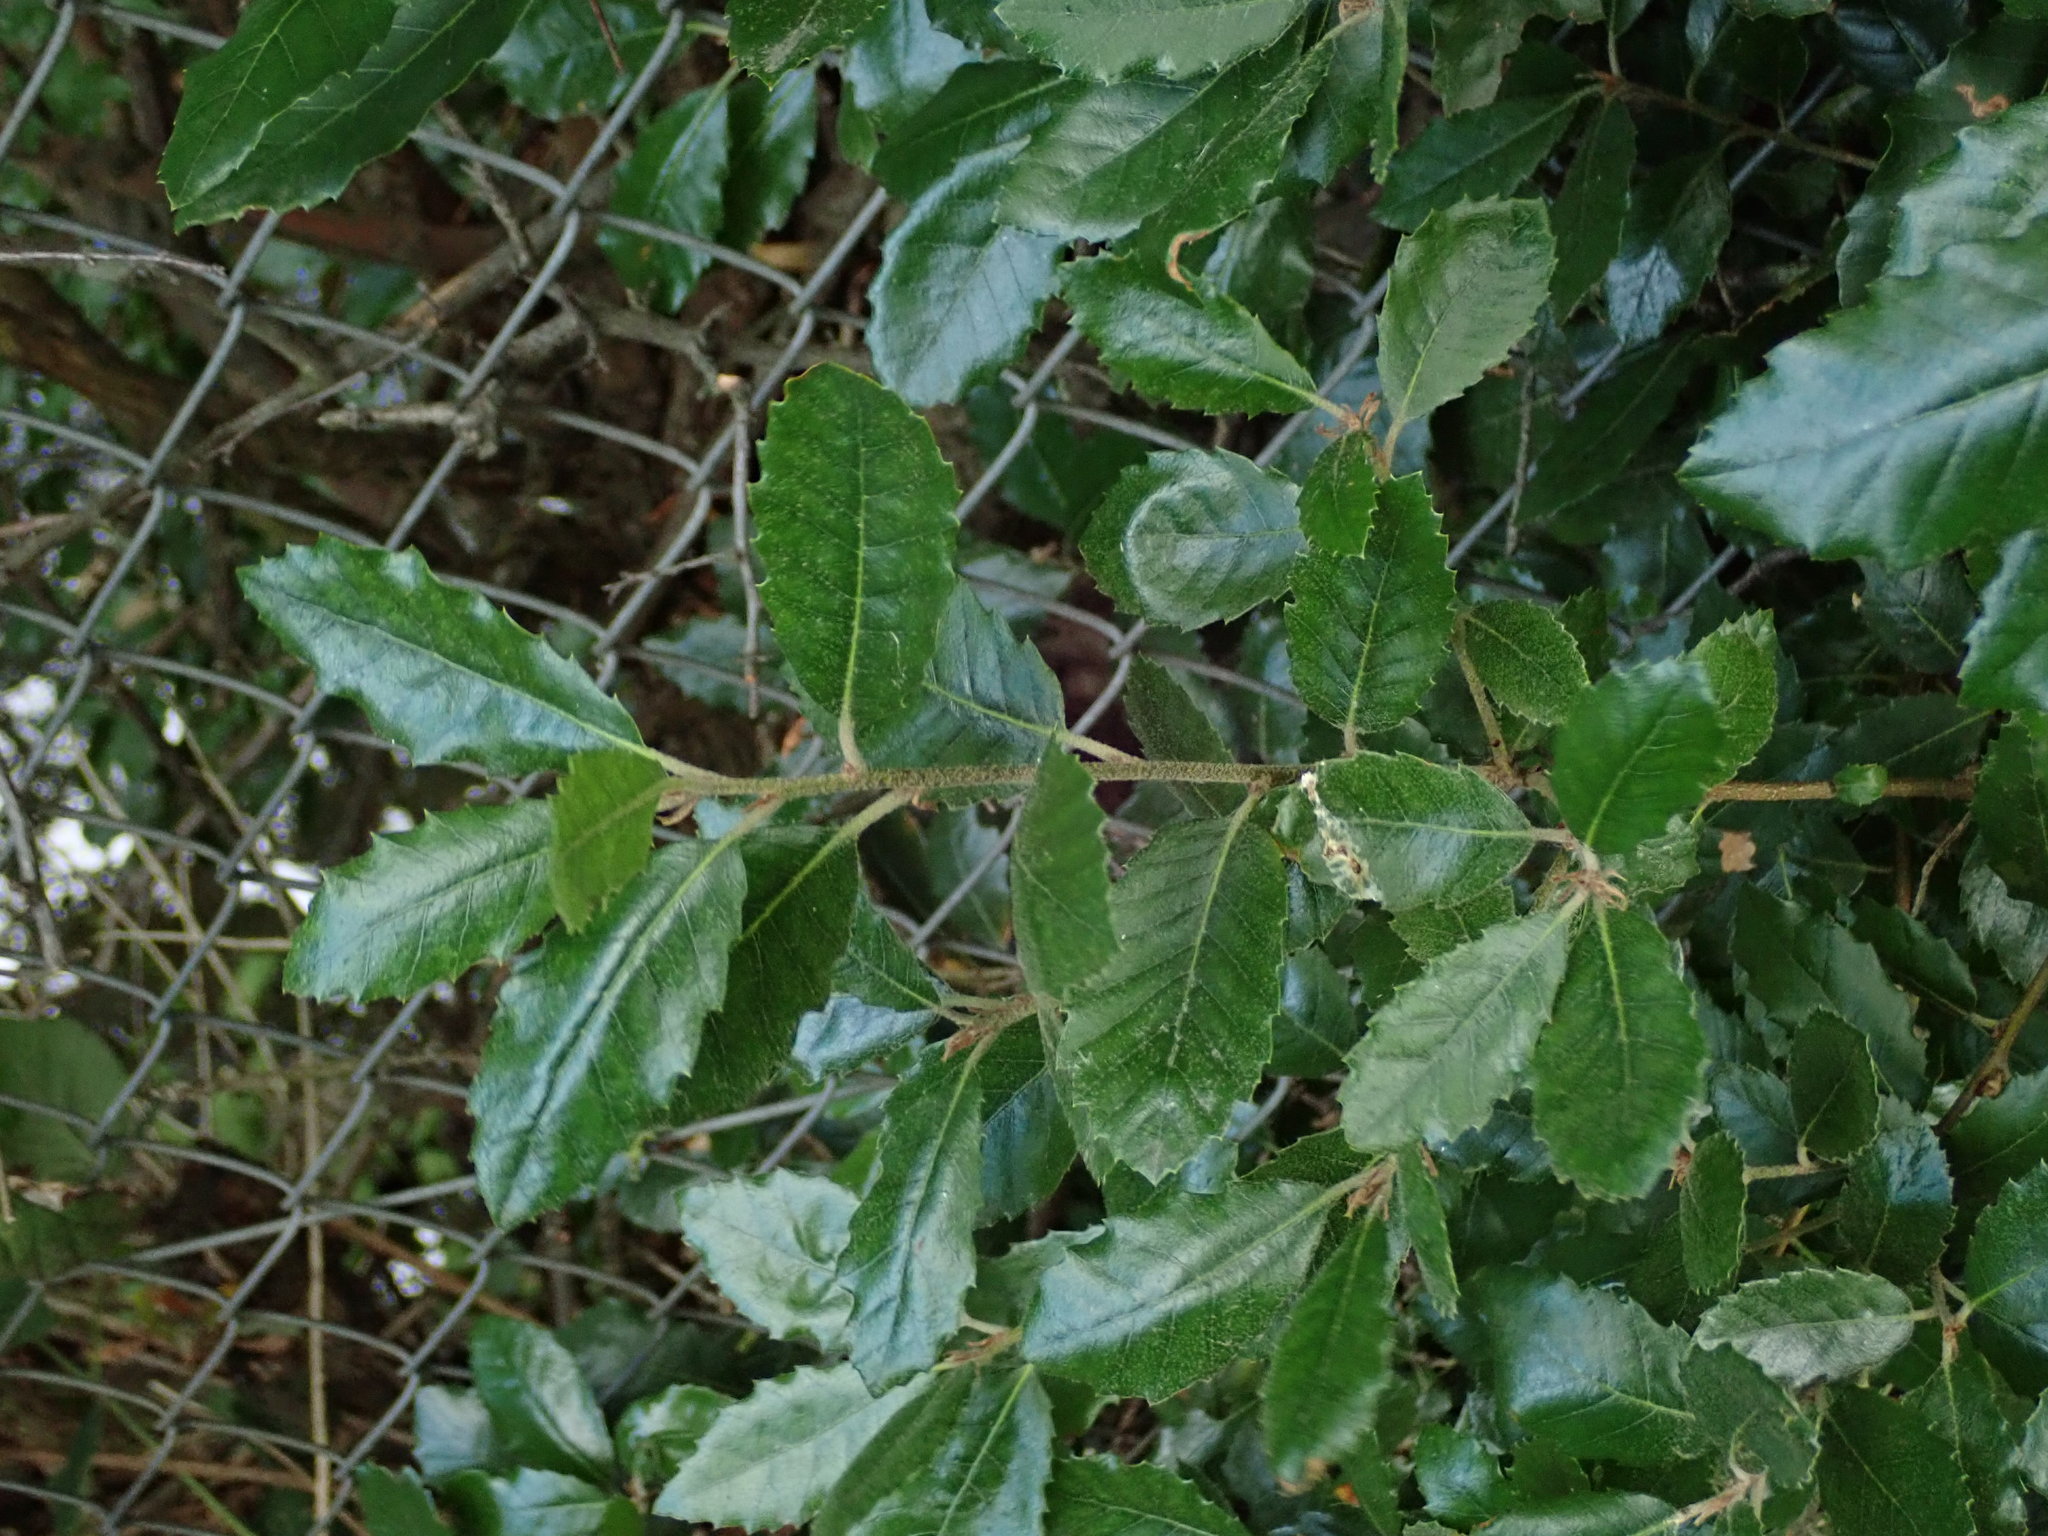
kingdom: Plantae
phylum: Tracheophyta
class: Magnoliopsida
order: Fagales
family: Fagaceae
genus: Quercus
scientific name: Quercus ilex
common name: Evergreen oak
